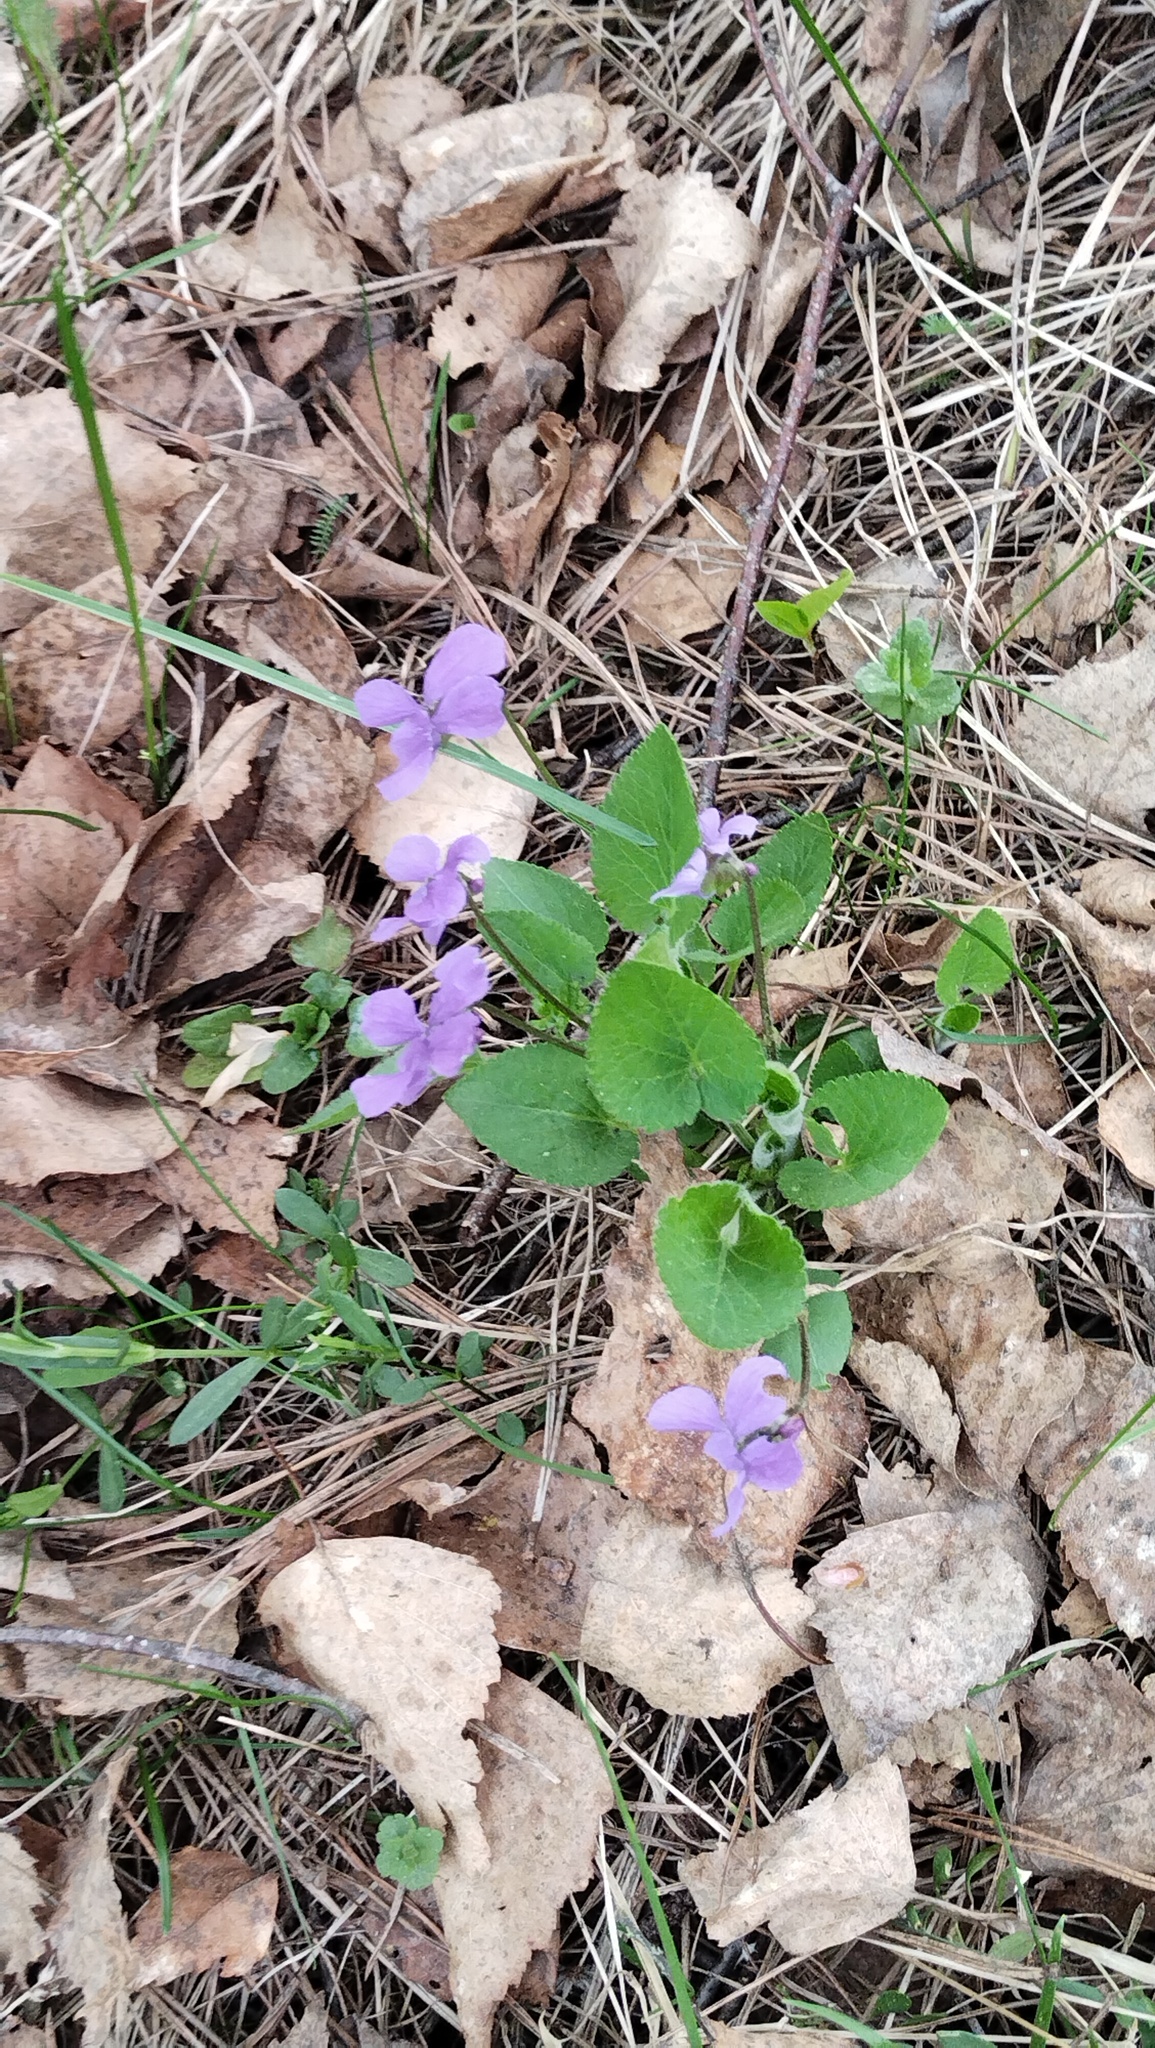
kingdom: Plantae
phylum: Tracheophyta
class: Magnoliopsida
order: Malpighiales
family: Violaceae
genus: Viola
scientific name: Viola hirta
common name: Hairy violet
